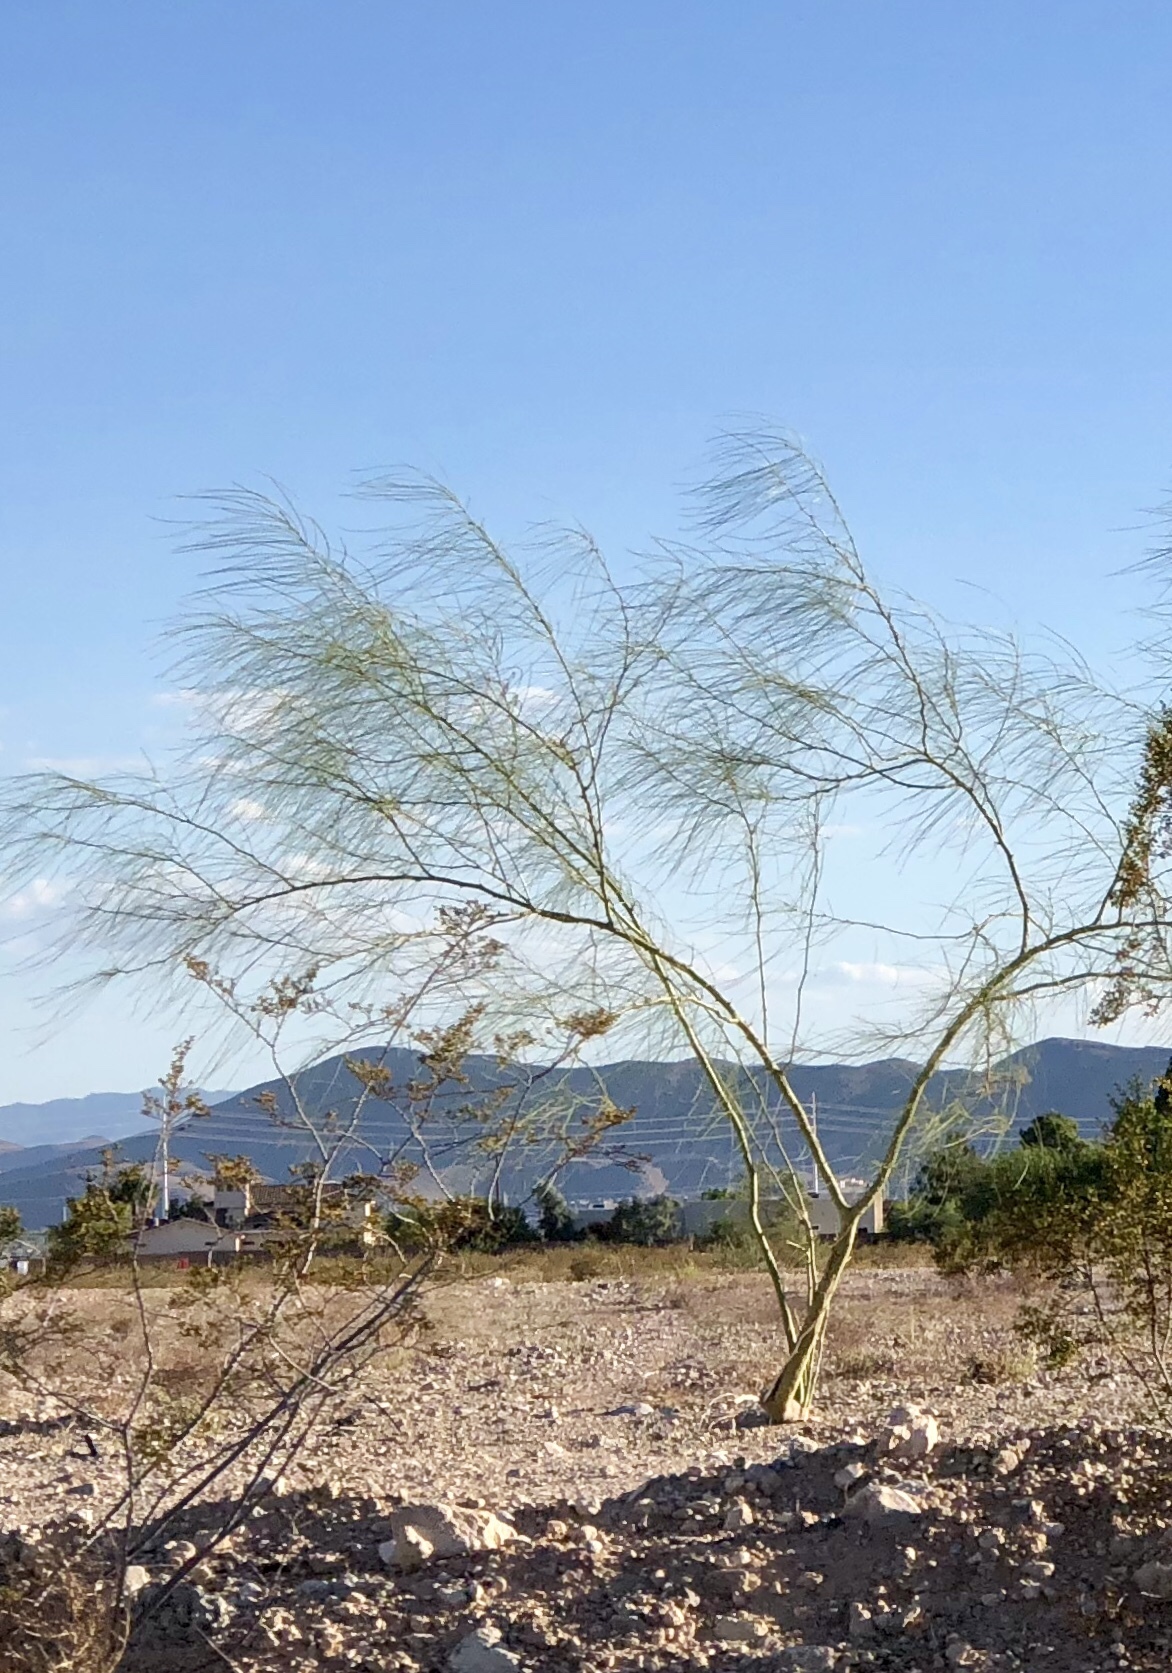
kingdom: Plantae
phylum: Tracheophyta
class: Magnoliopsida
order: Fabales
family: Fabaceae
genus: Parkinsonia
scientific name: Parkinsonia aculeata
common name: Jerusalem thorn
